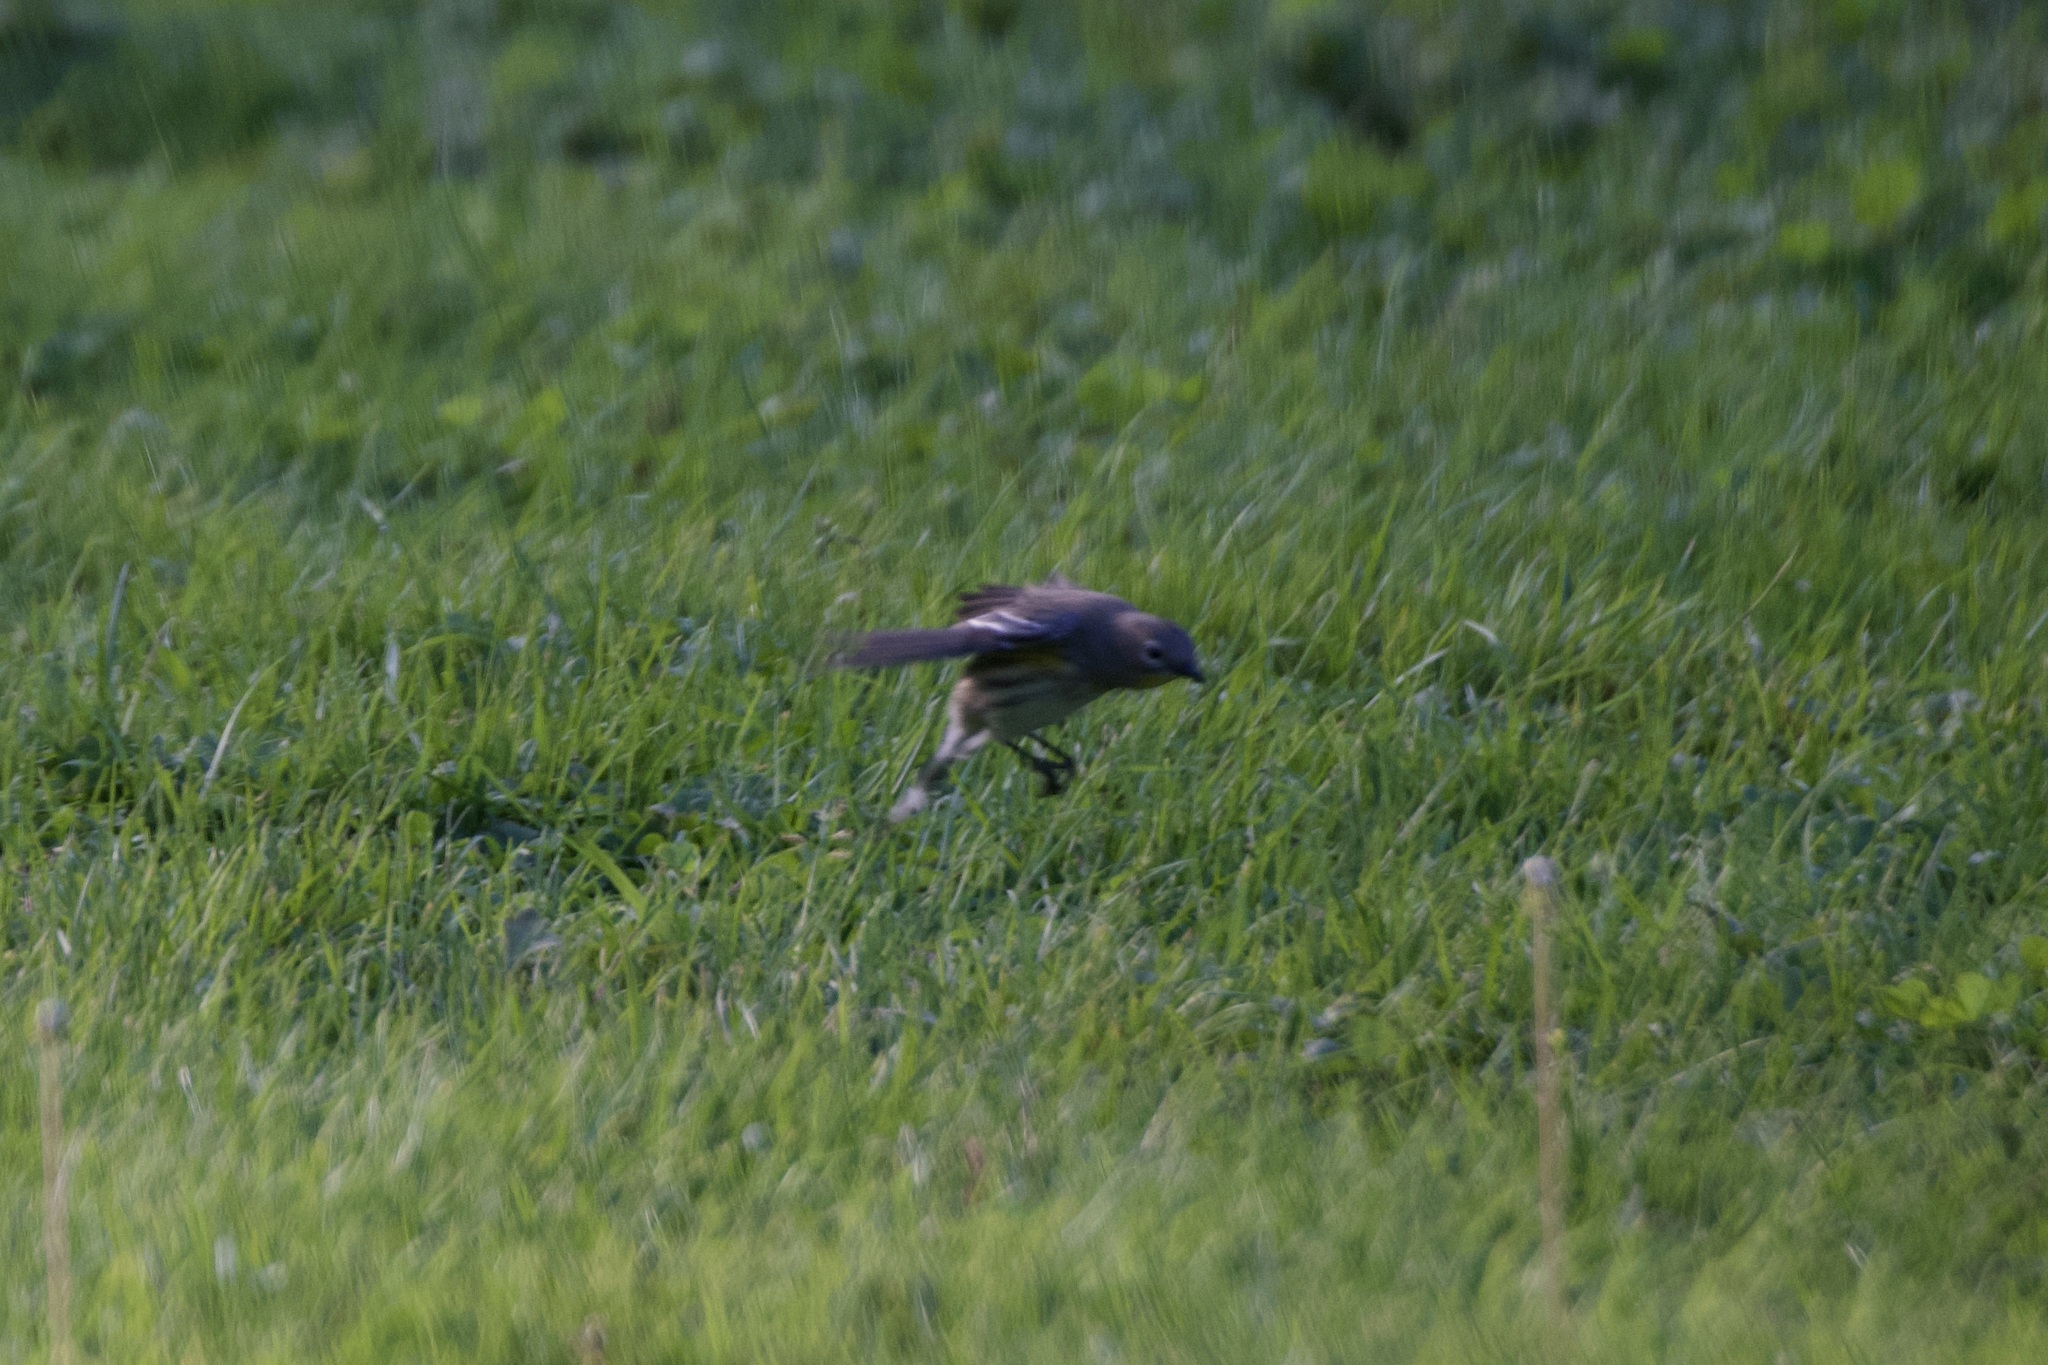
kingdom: Animalia
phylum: Chordata
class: Aves
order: Passeriformes
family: Parulidae
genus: Setophaga
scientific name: Setophaga auduboni
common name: Audubon's warbler
